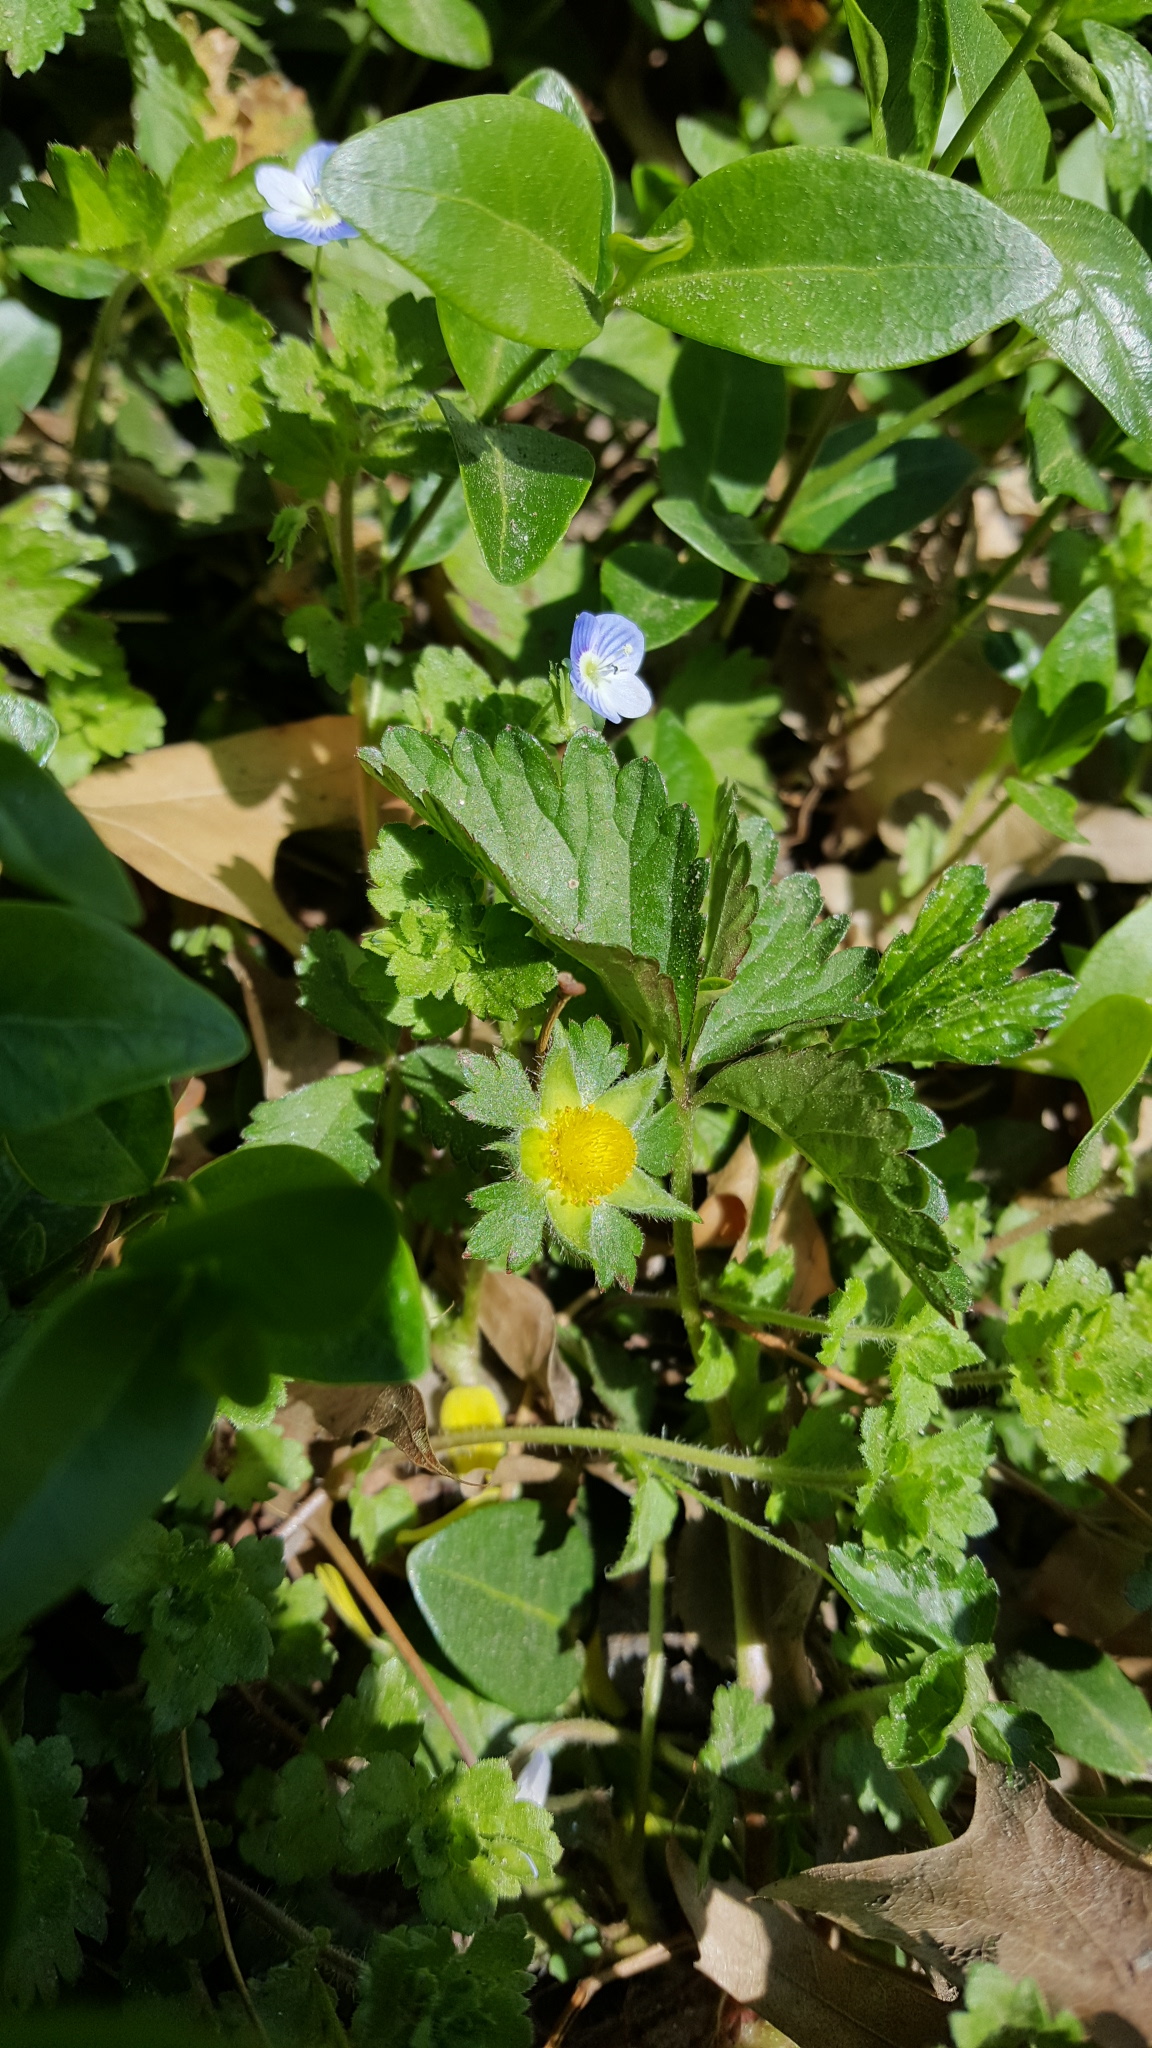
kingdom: Plantae
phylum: Tracheophyta
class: Magnoliopsida
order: Rosales
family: Rosaceae
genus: Potentilla
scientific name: Potentilla indica
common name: Yellow-flowered strawberry
